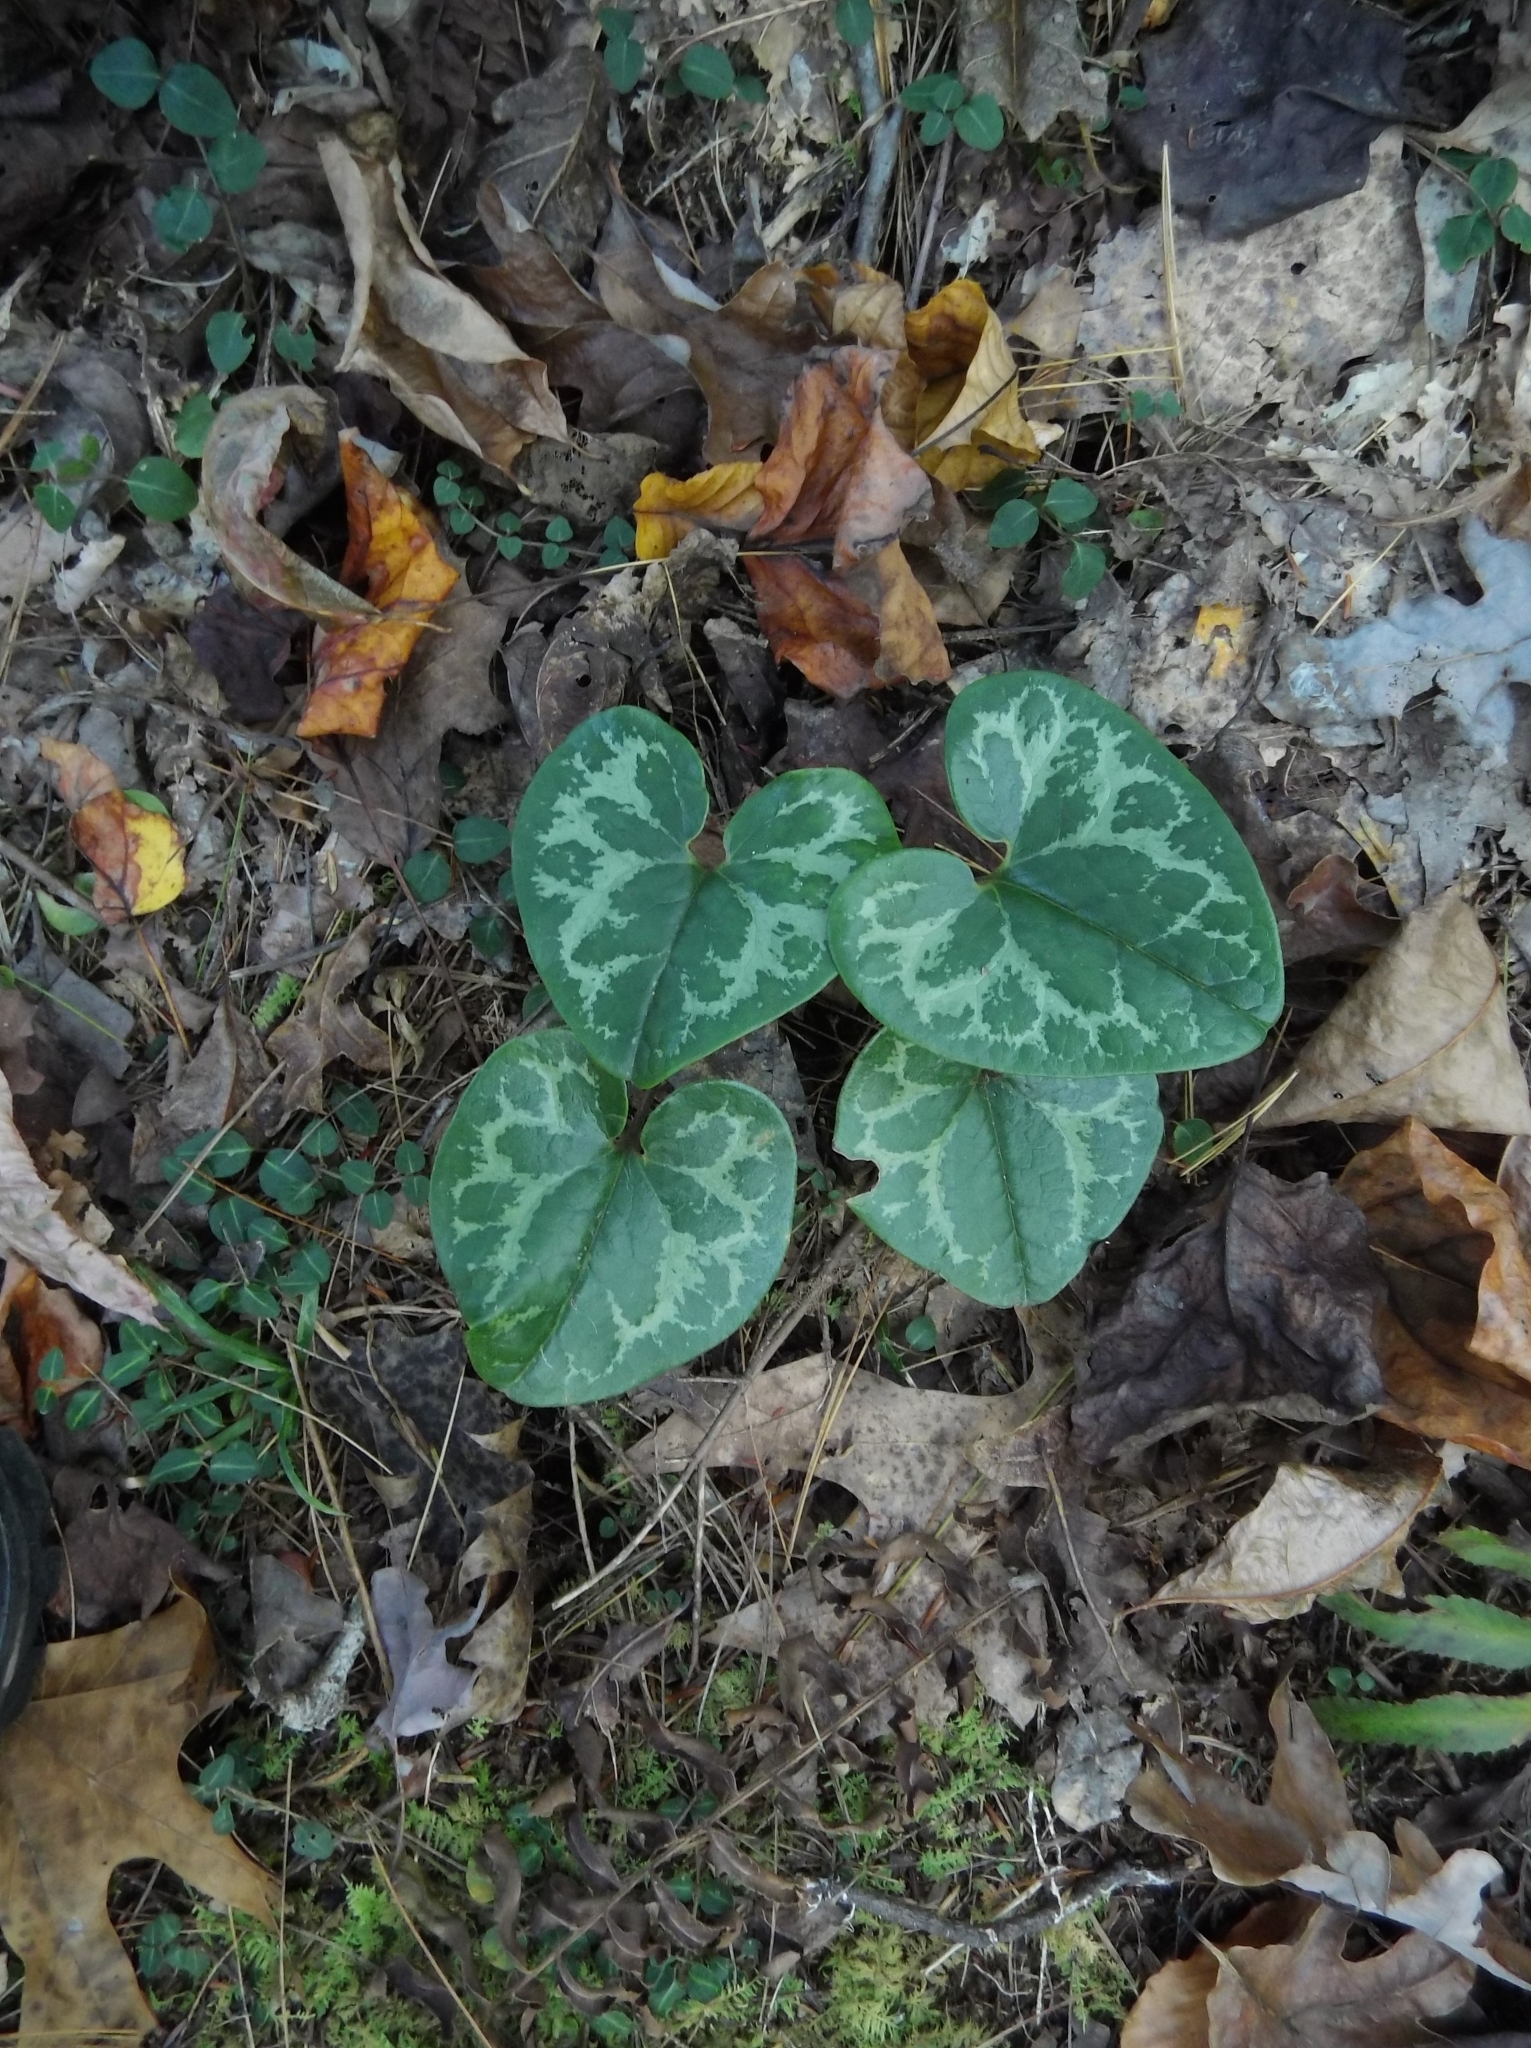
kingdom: Plantae
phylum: Tracheophyta
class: Magnoliopsida
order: Piperales
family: Aristolochiaceae
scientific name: Aristolochiaceae
